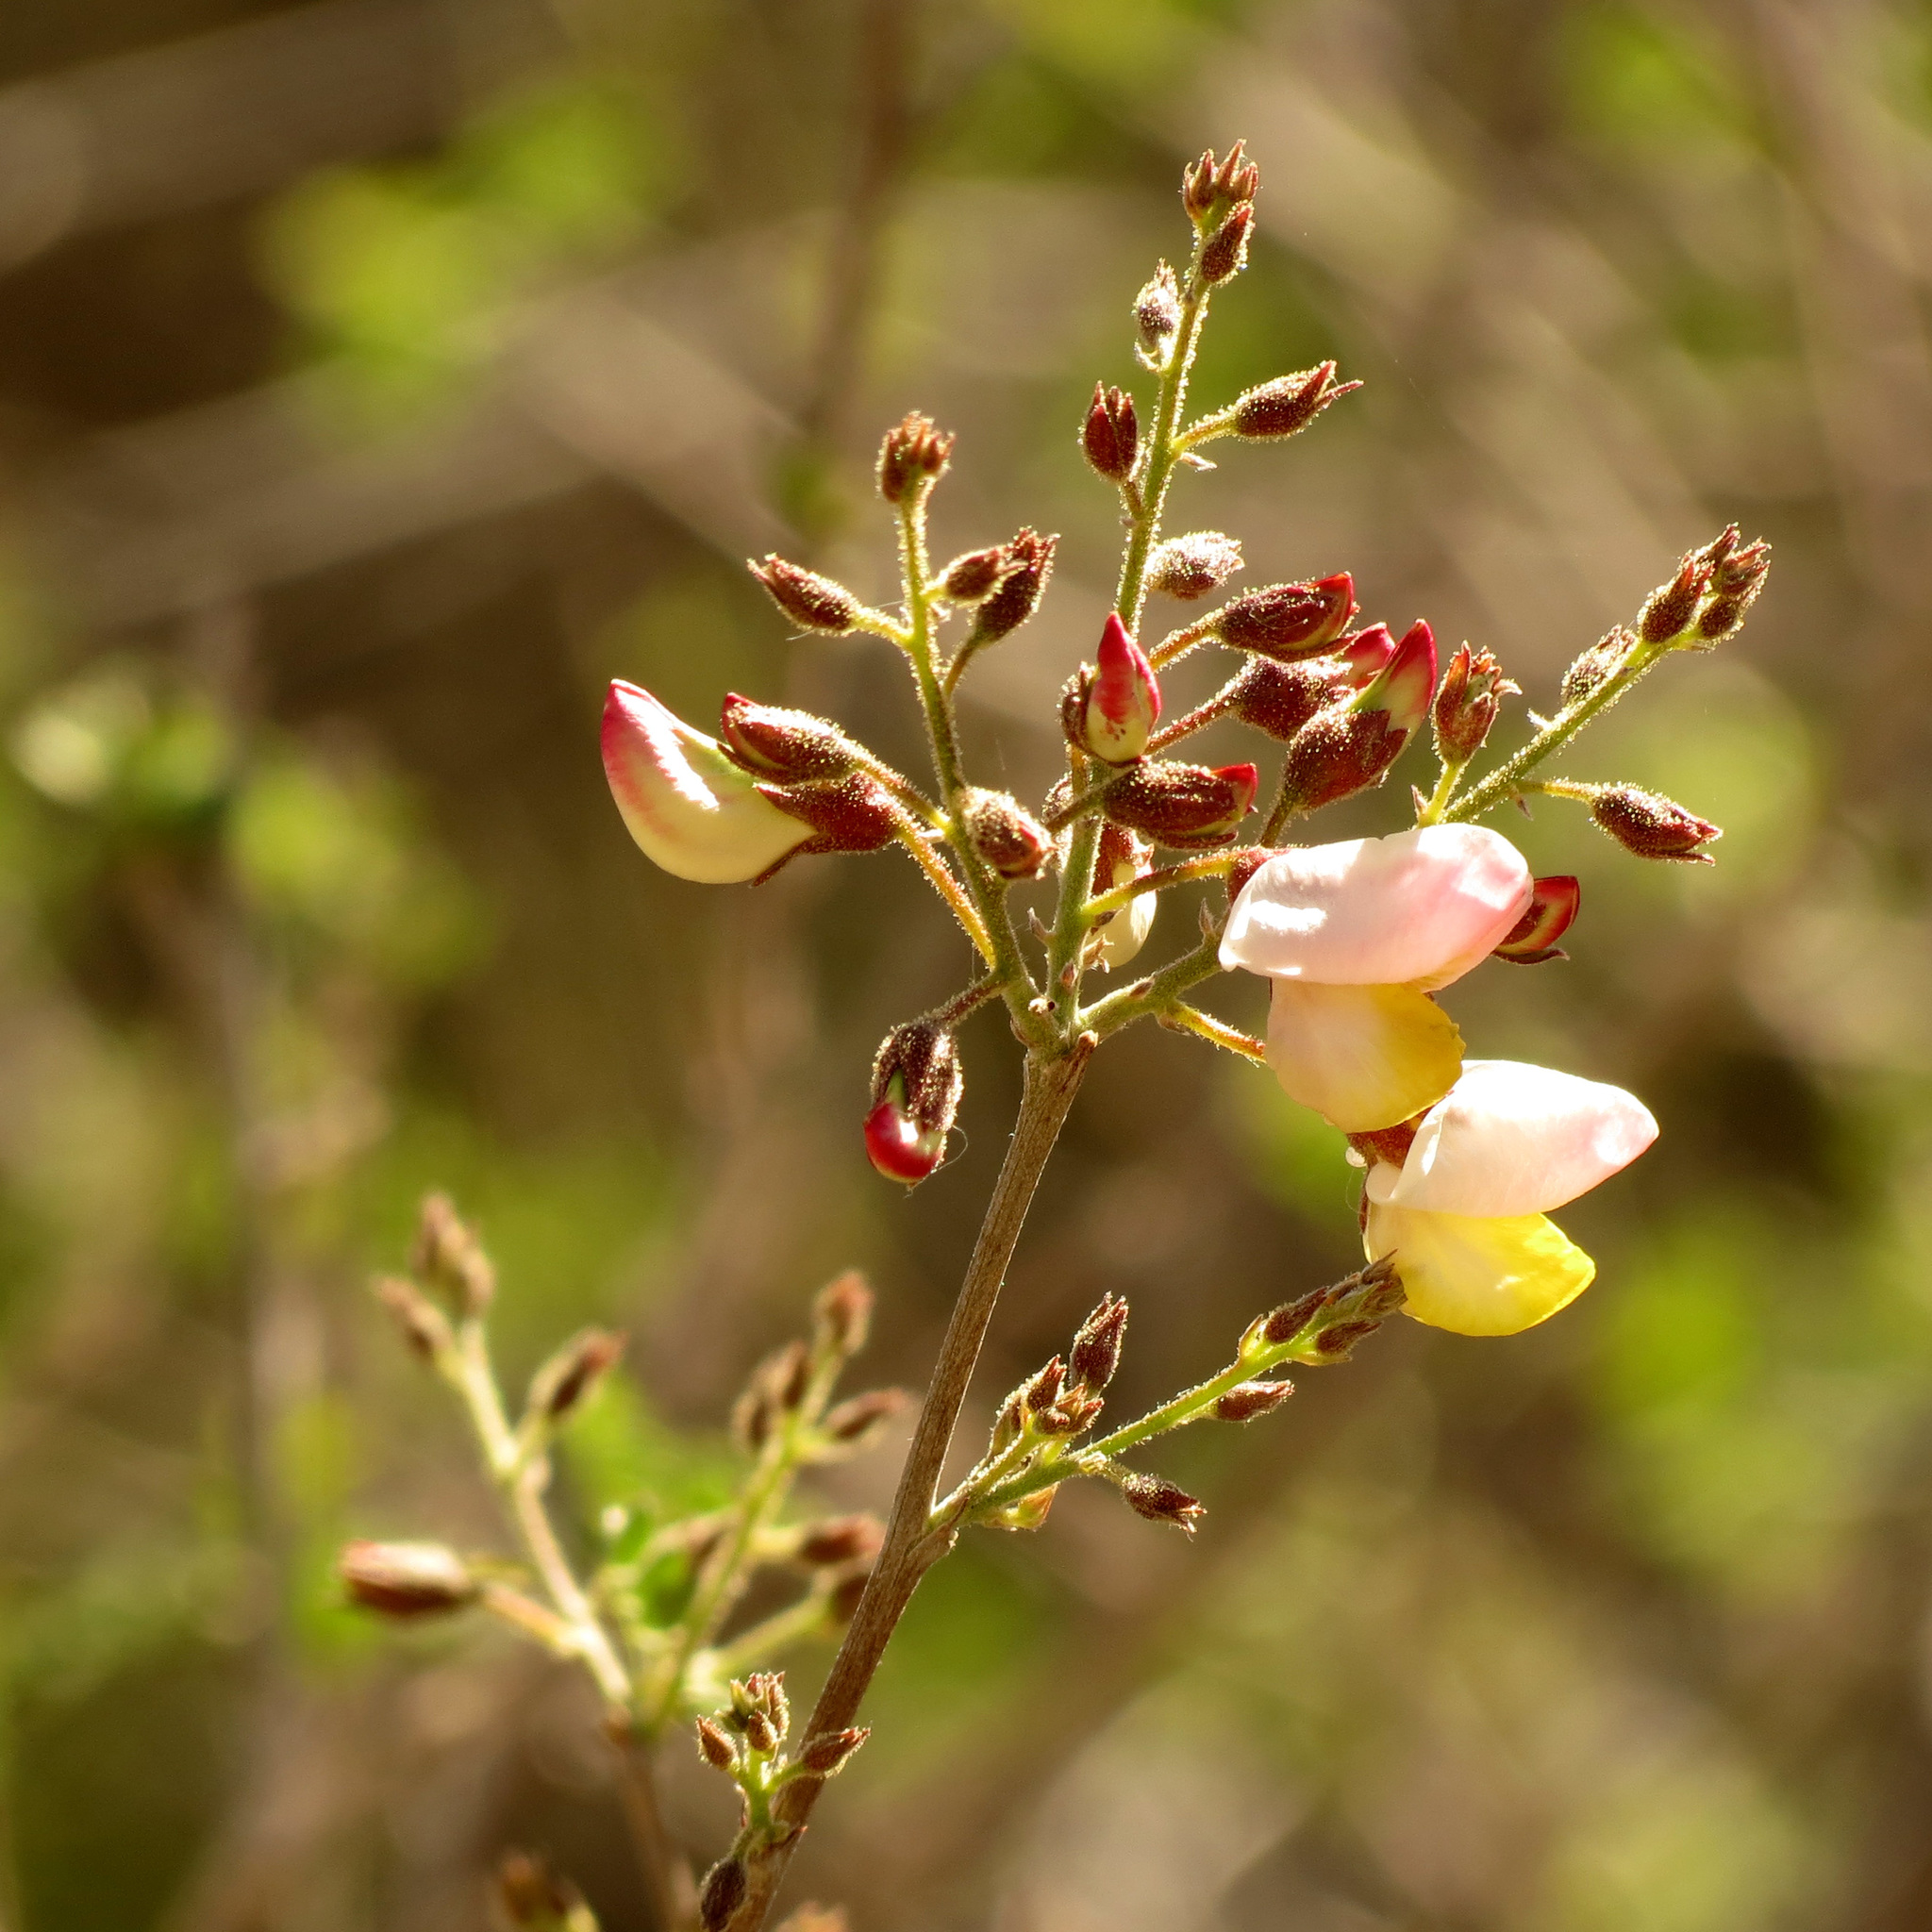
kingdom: Plantae
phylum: Tracheophyta
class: Magnoliopsida
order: Fabales
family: Fabaceae
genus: Coursetia
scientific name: Coursetia glandulosa
